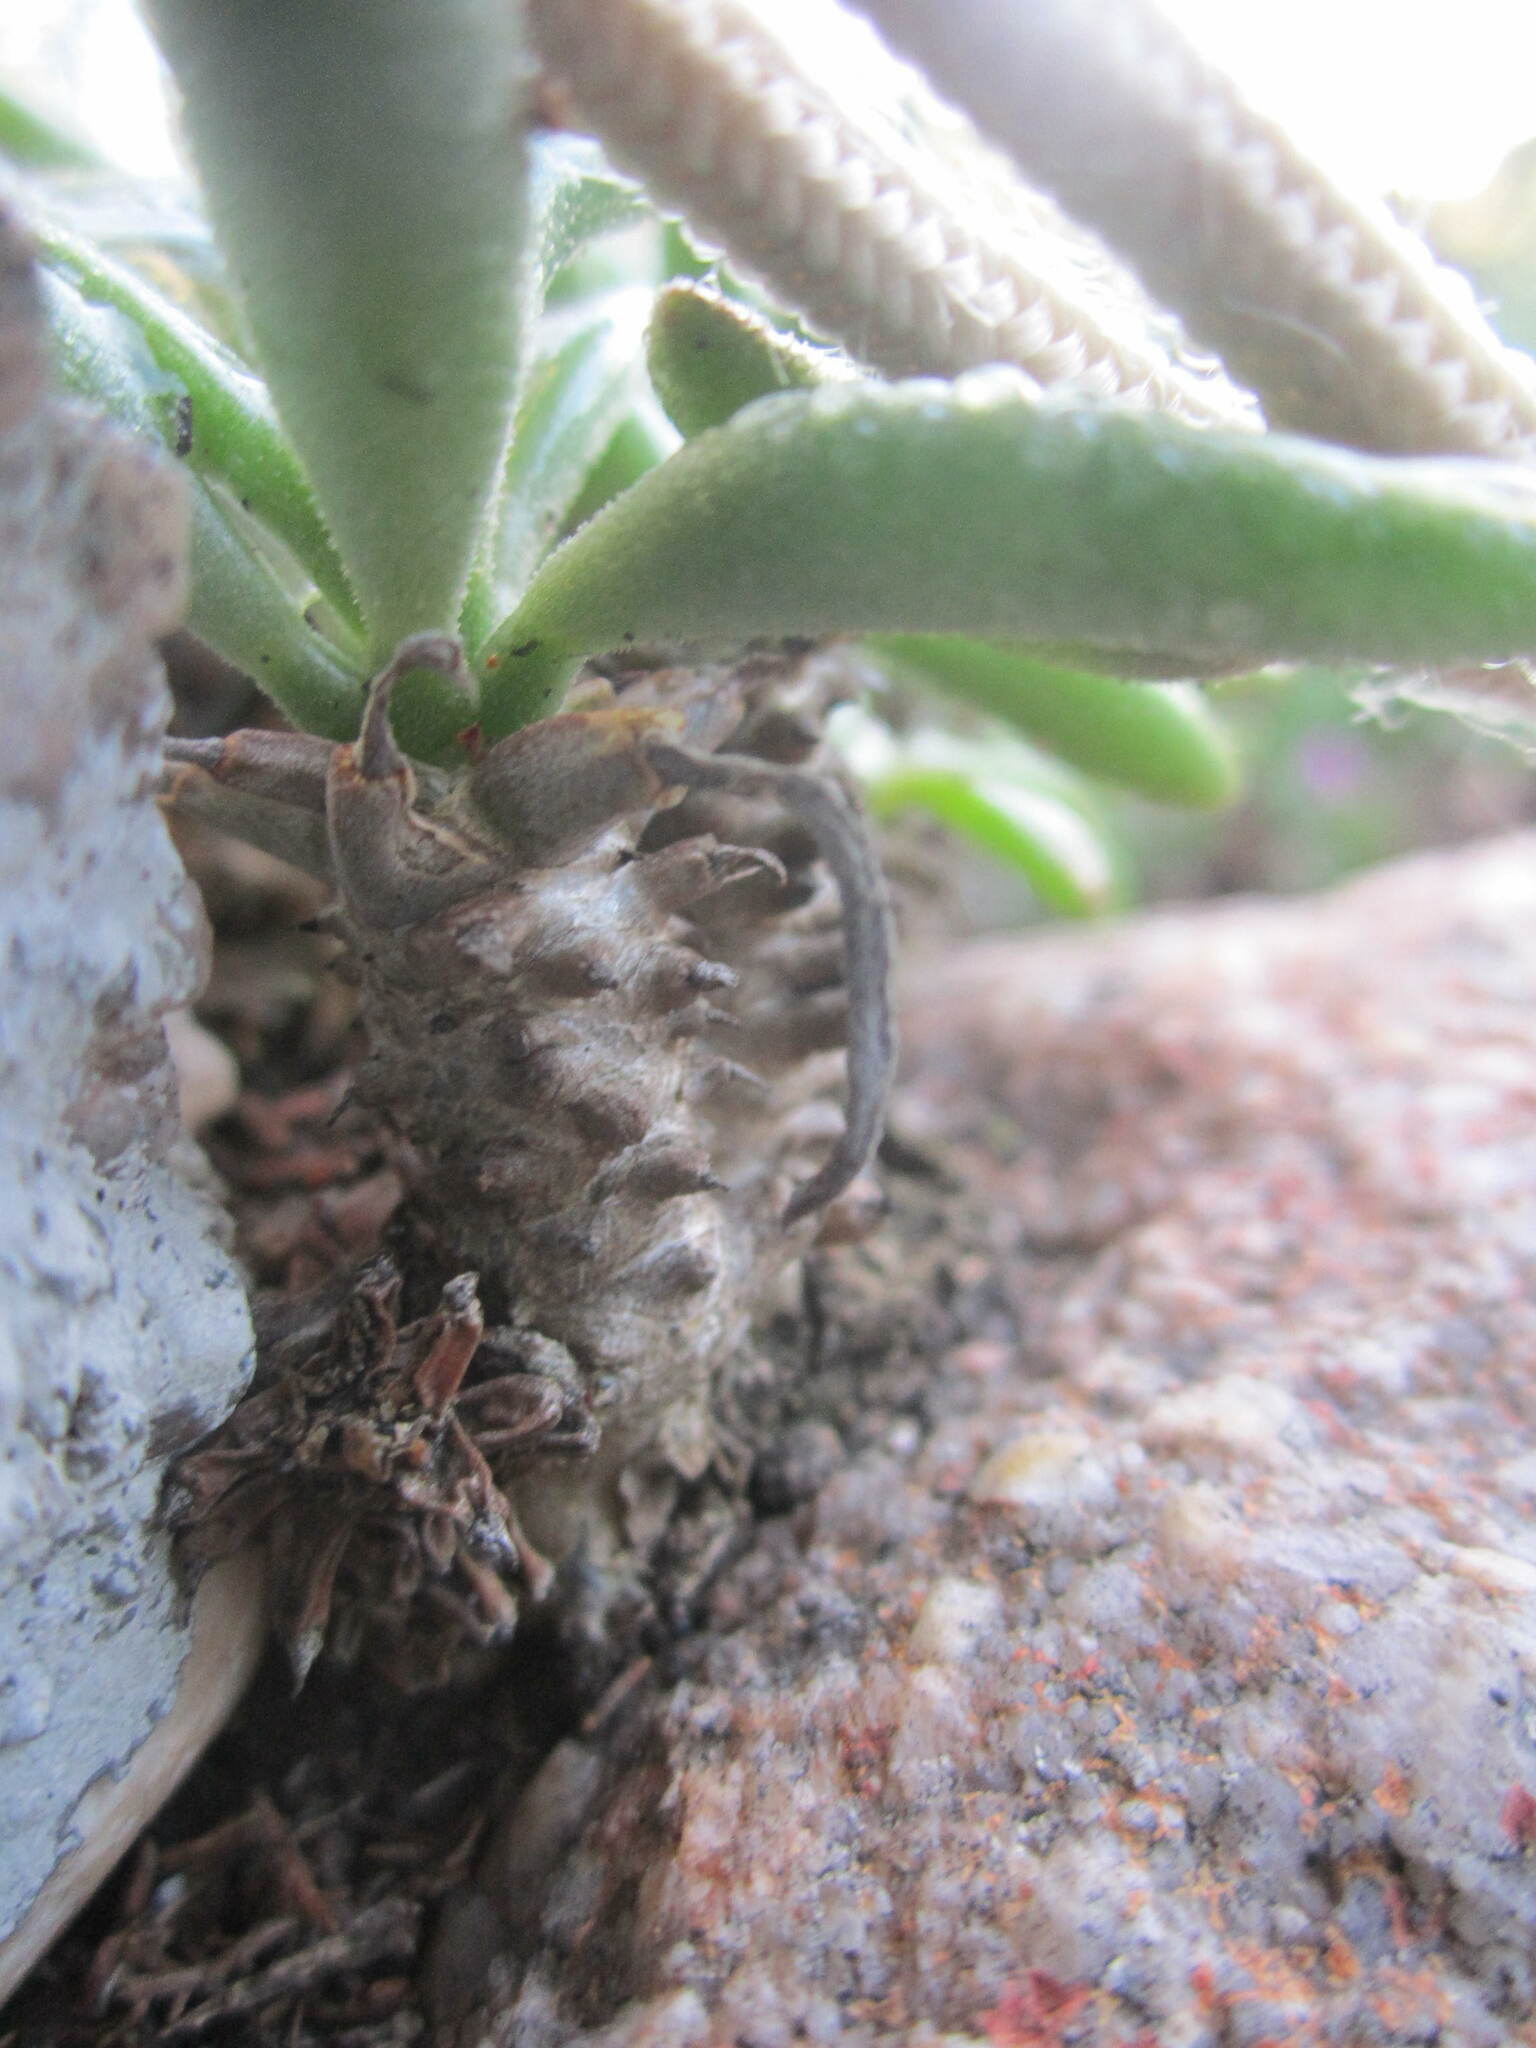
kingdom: Plantae
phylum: Tracheophyta
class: Magnoliopsida
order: Saxifragales
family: Crassulaceae
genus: Tylecodon
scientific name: Tylecodon ventricosus
